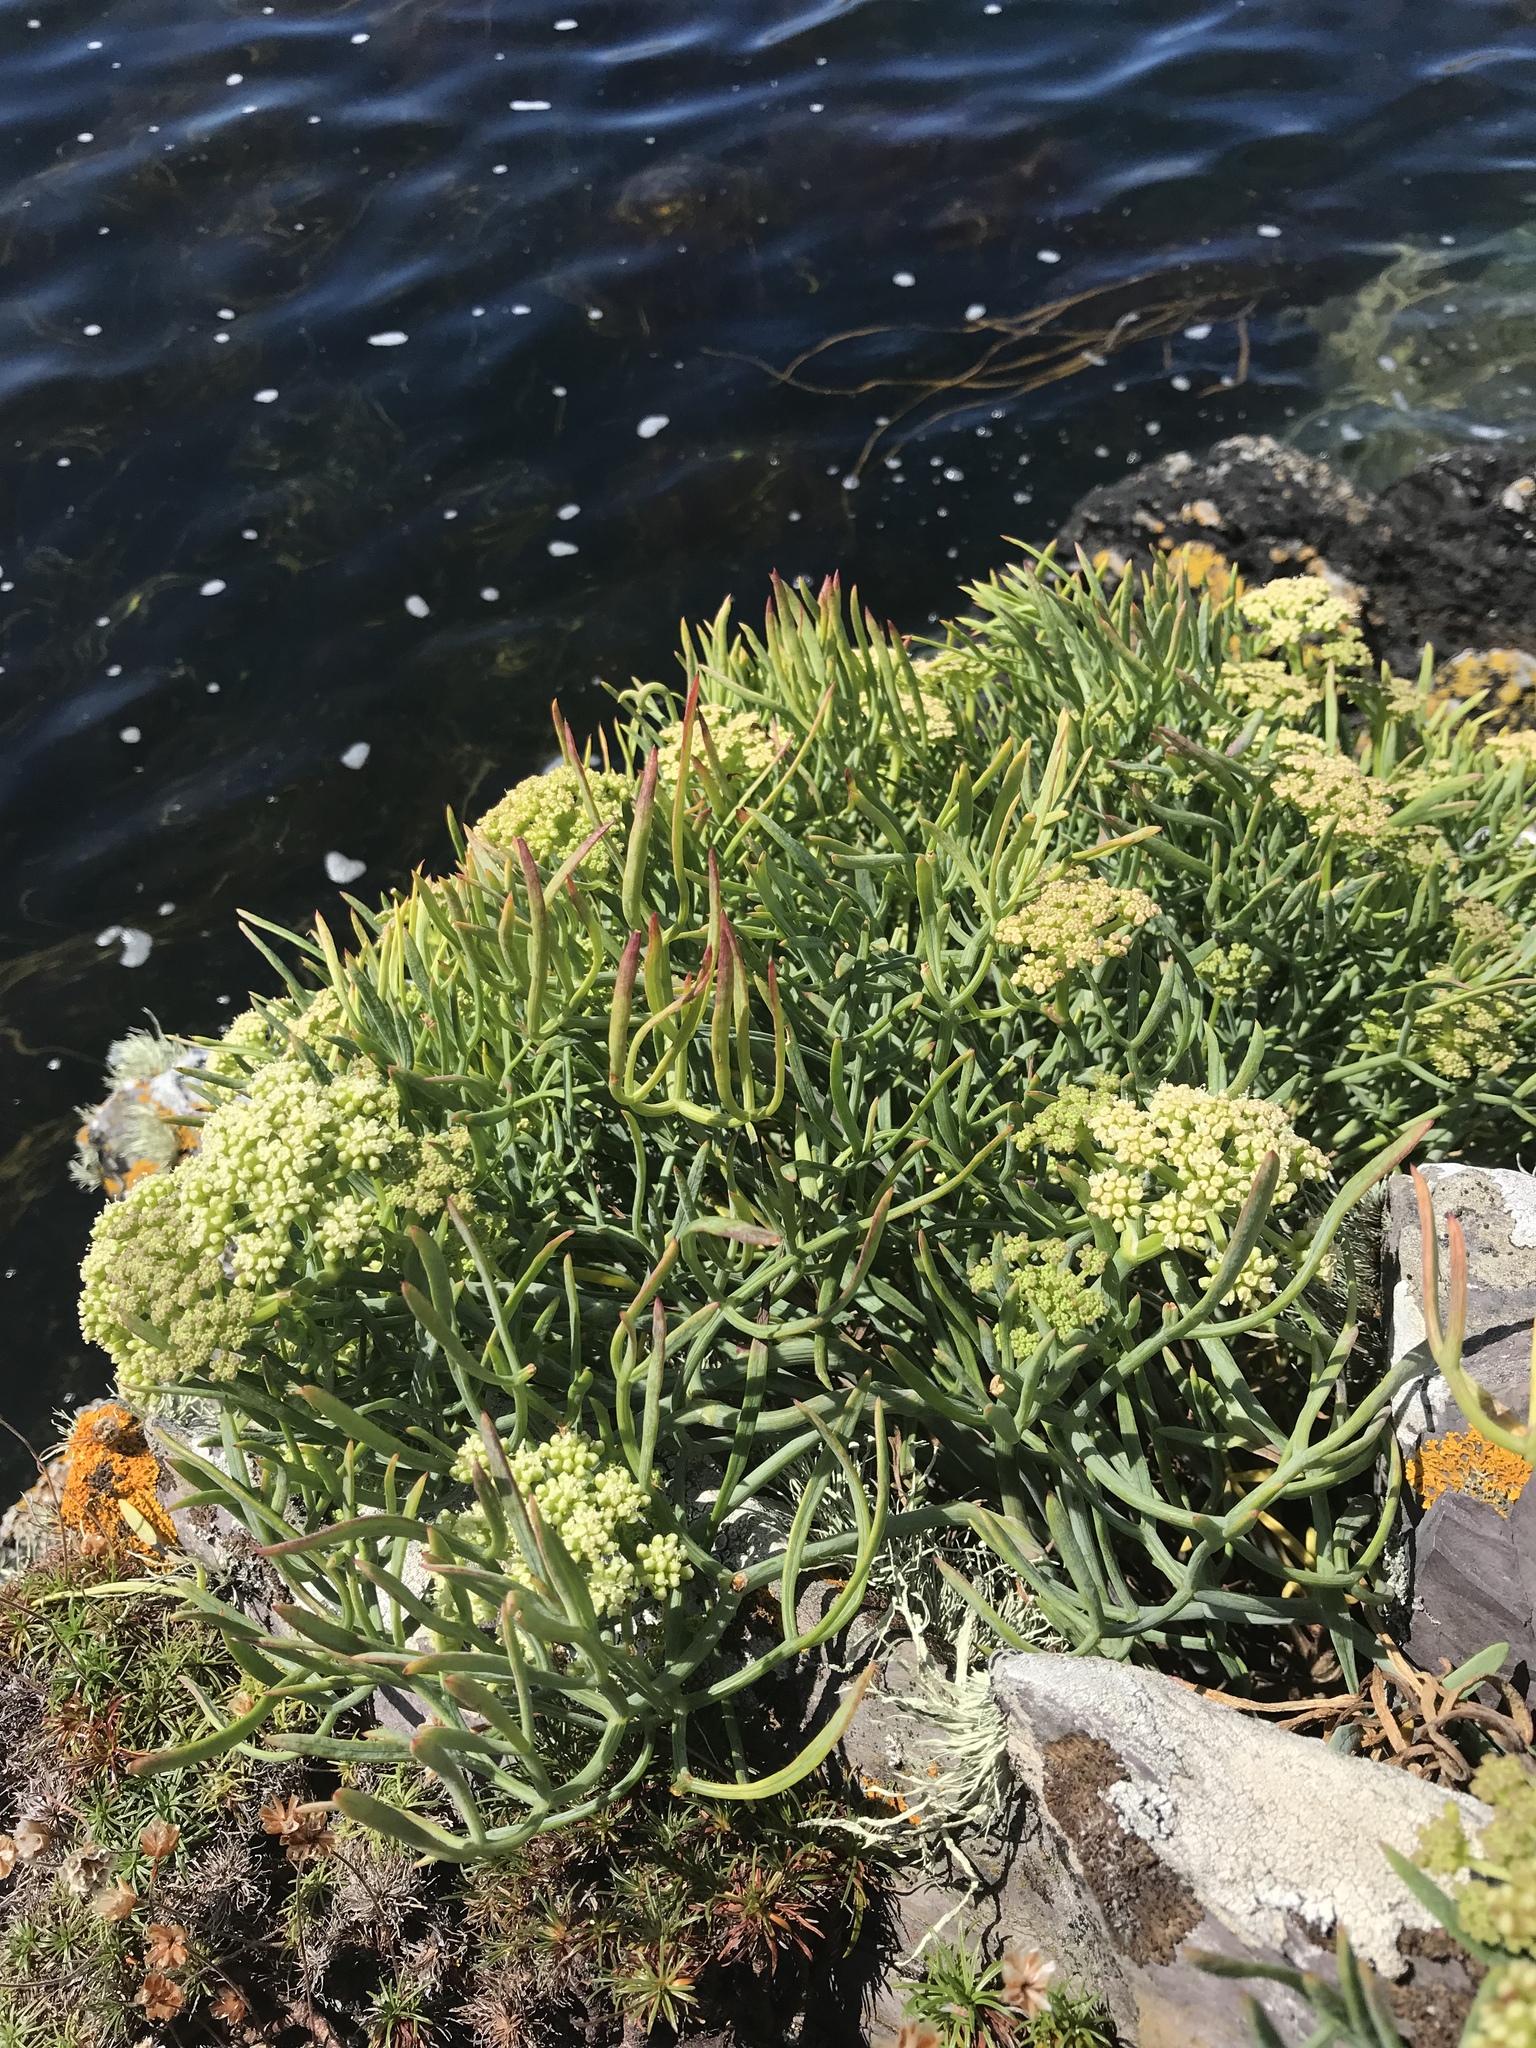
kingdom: Plantae
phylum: Tracheophyta
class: Magnoliopsida
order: Apiales
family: Apiaceae
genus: Crithmum
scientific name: Crithmum maritimum
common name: Rock samphire
